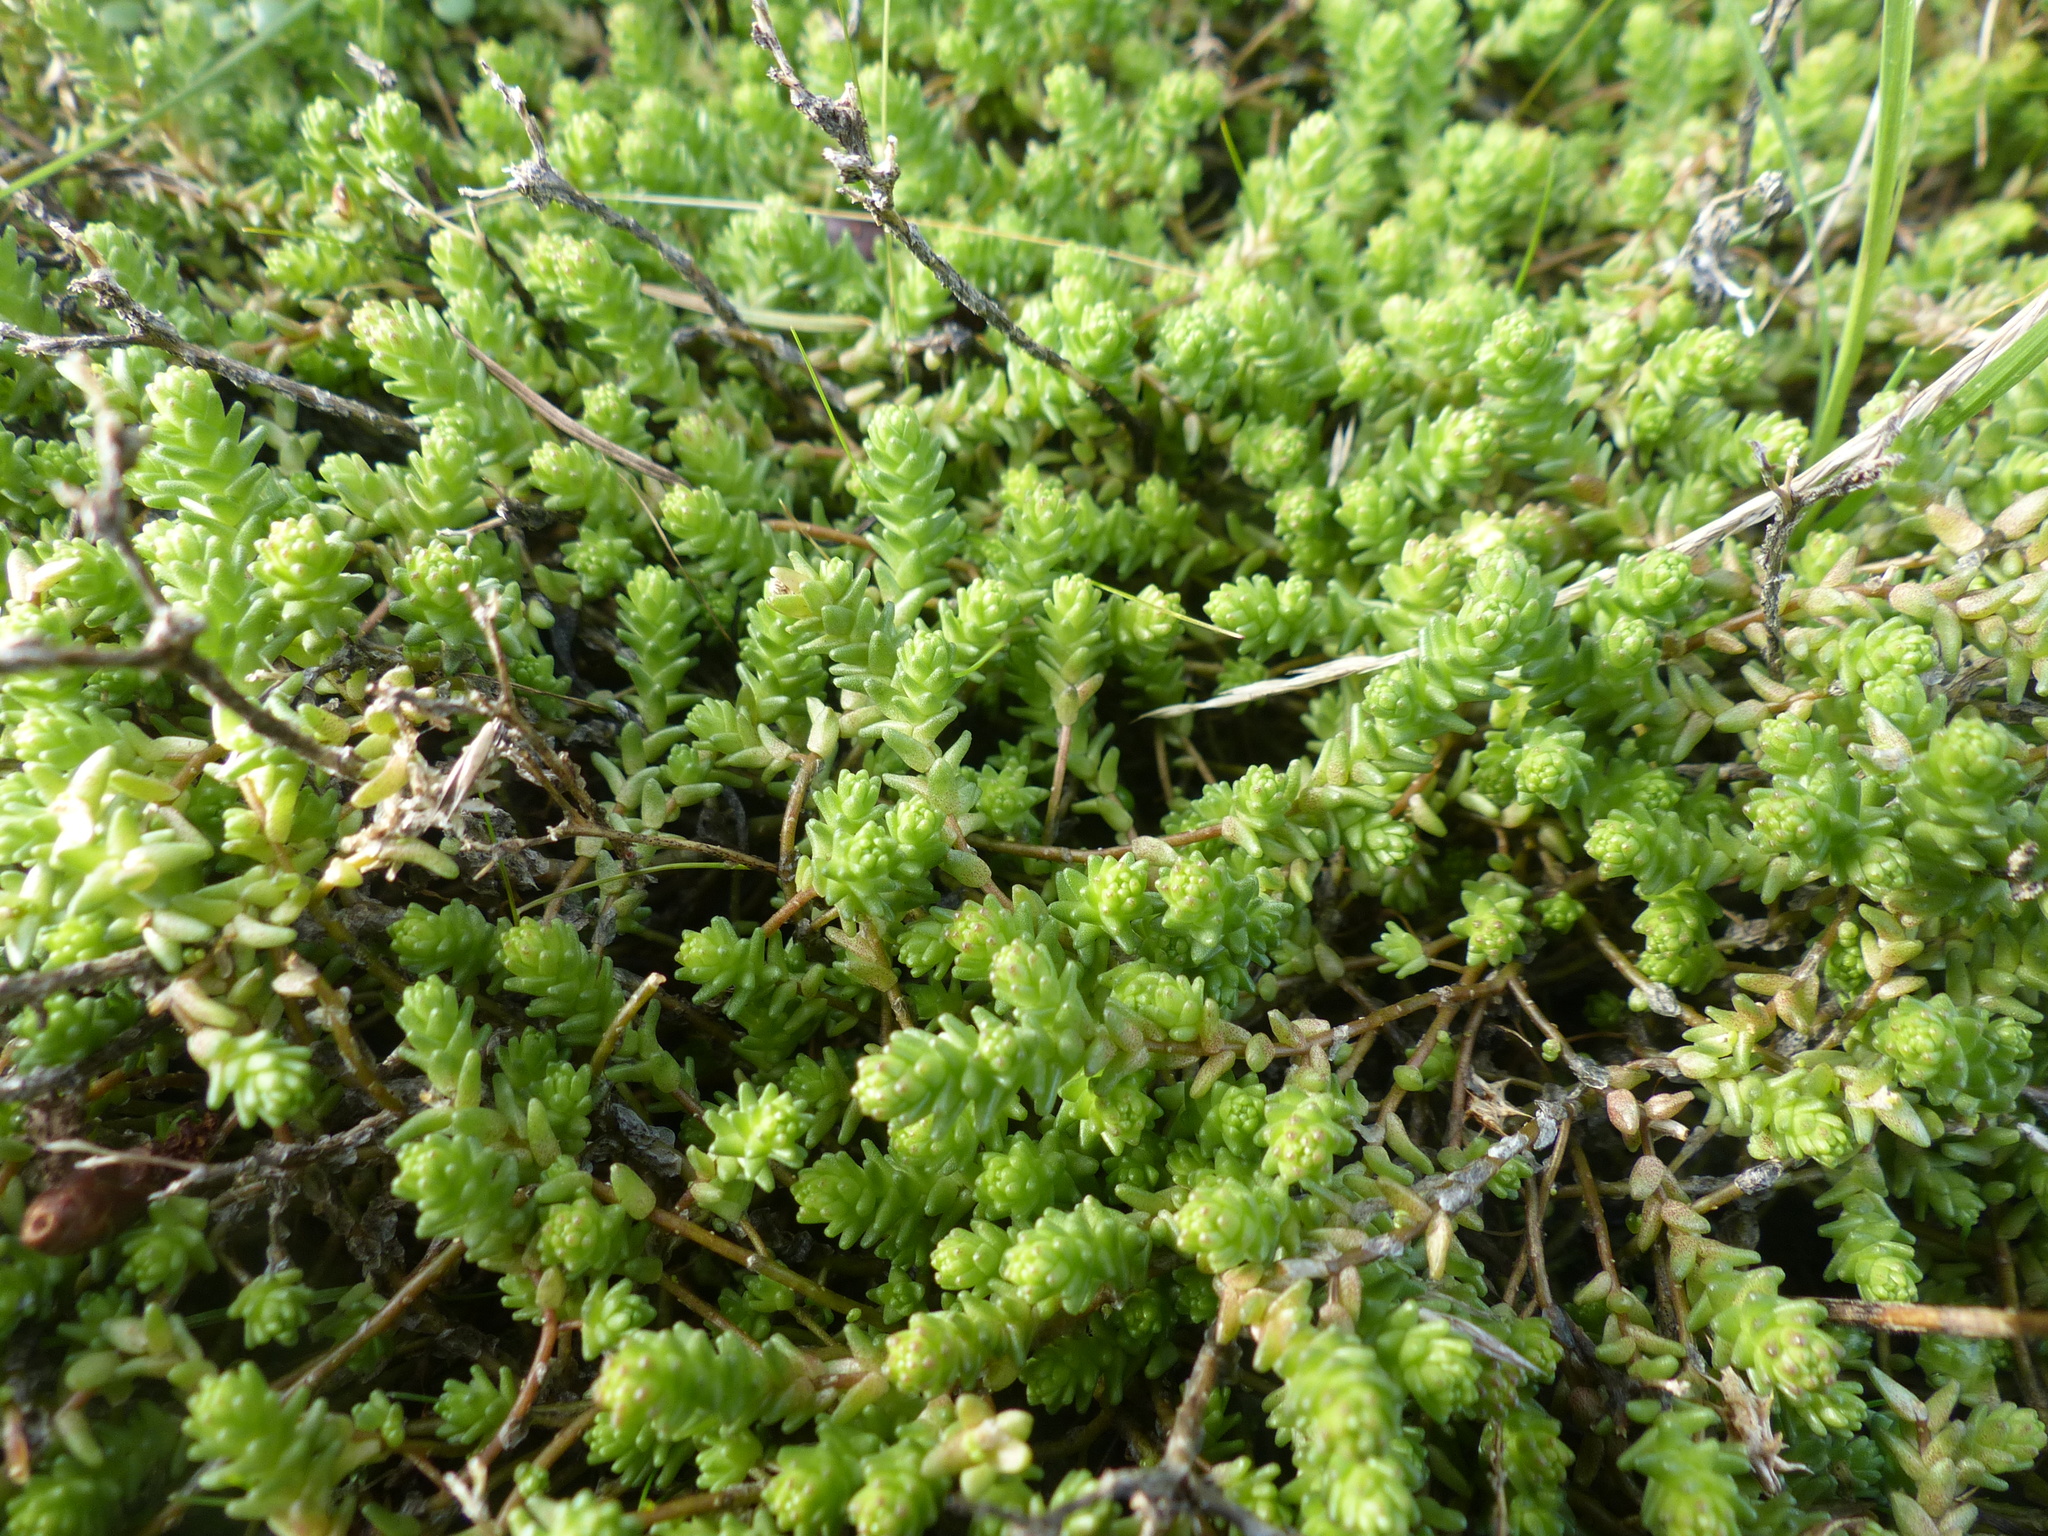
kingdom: Plantae
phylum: Tracheophyta
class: Magnoliopsida
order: Saxifragales
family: Crassulaceae
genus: Sedum
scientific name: Sedum acre
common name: Biting stonecrop
